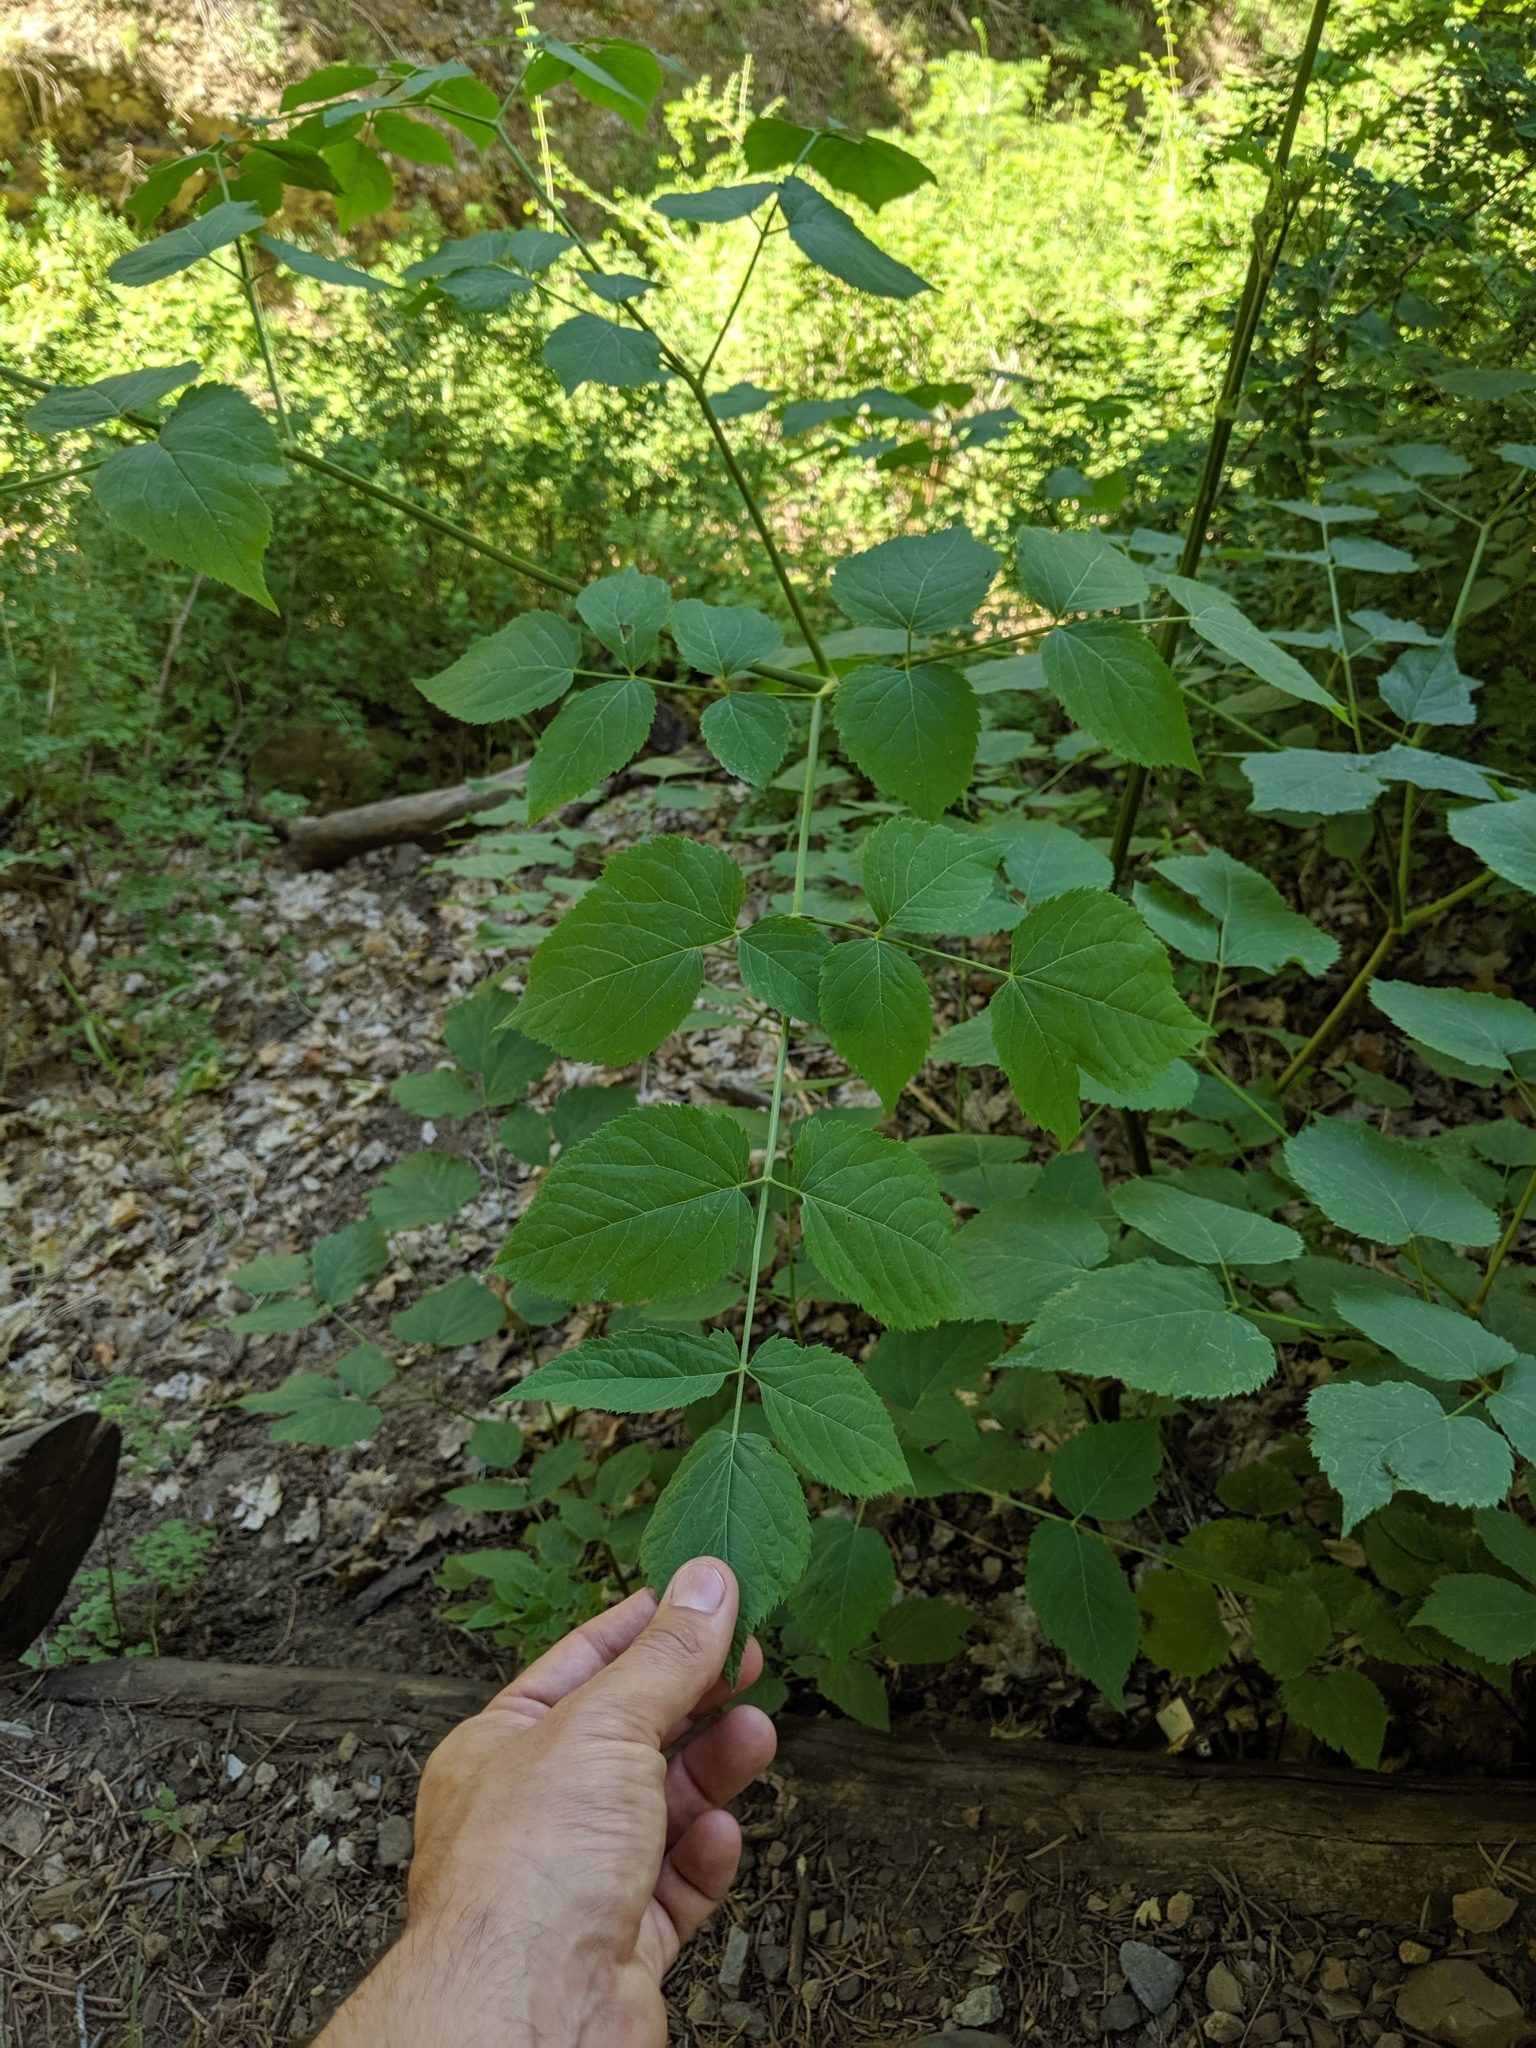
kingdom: Plantae
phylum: Tracheophyta
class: Magnoliopsida
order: Apiales
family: Araliaceae
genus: Aralia
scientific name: Aralia bicrenata
